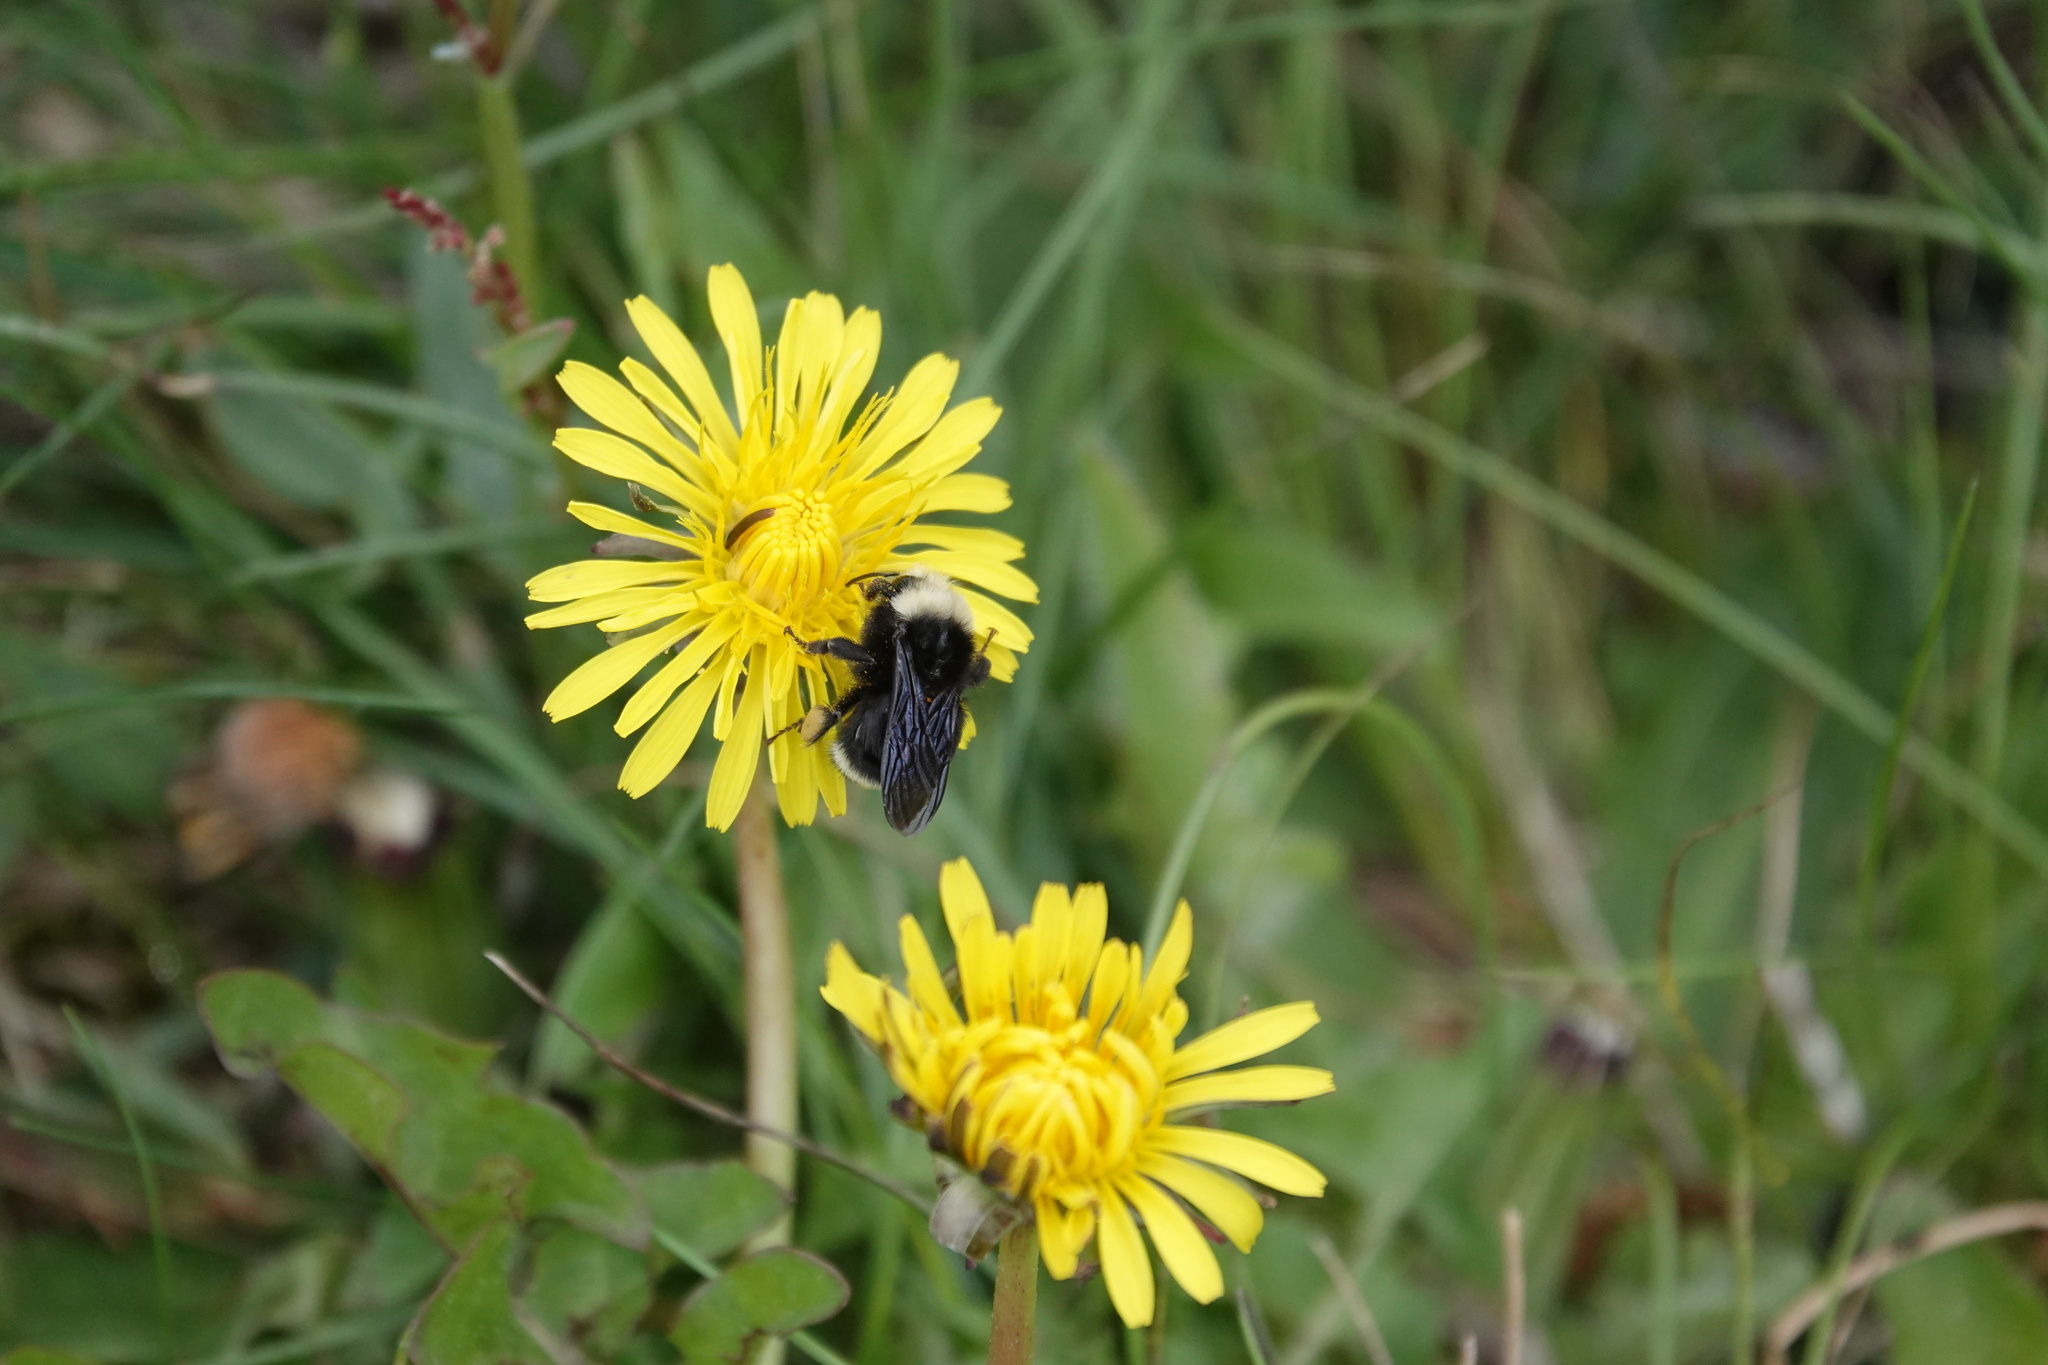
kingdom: Animalia
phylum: Arthropoda
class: Insecta
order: Hymenoptera
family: Apidae
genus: Bombus
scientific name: Bombus vosnesenskii
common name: Vosnesensky bumble bee
